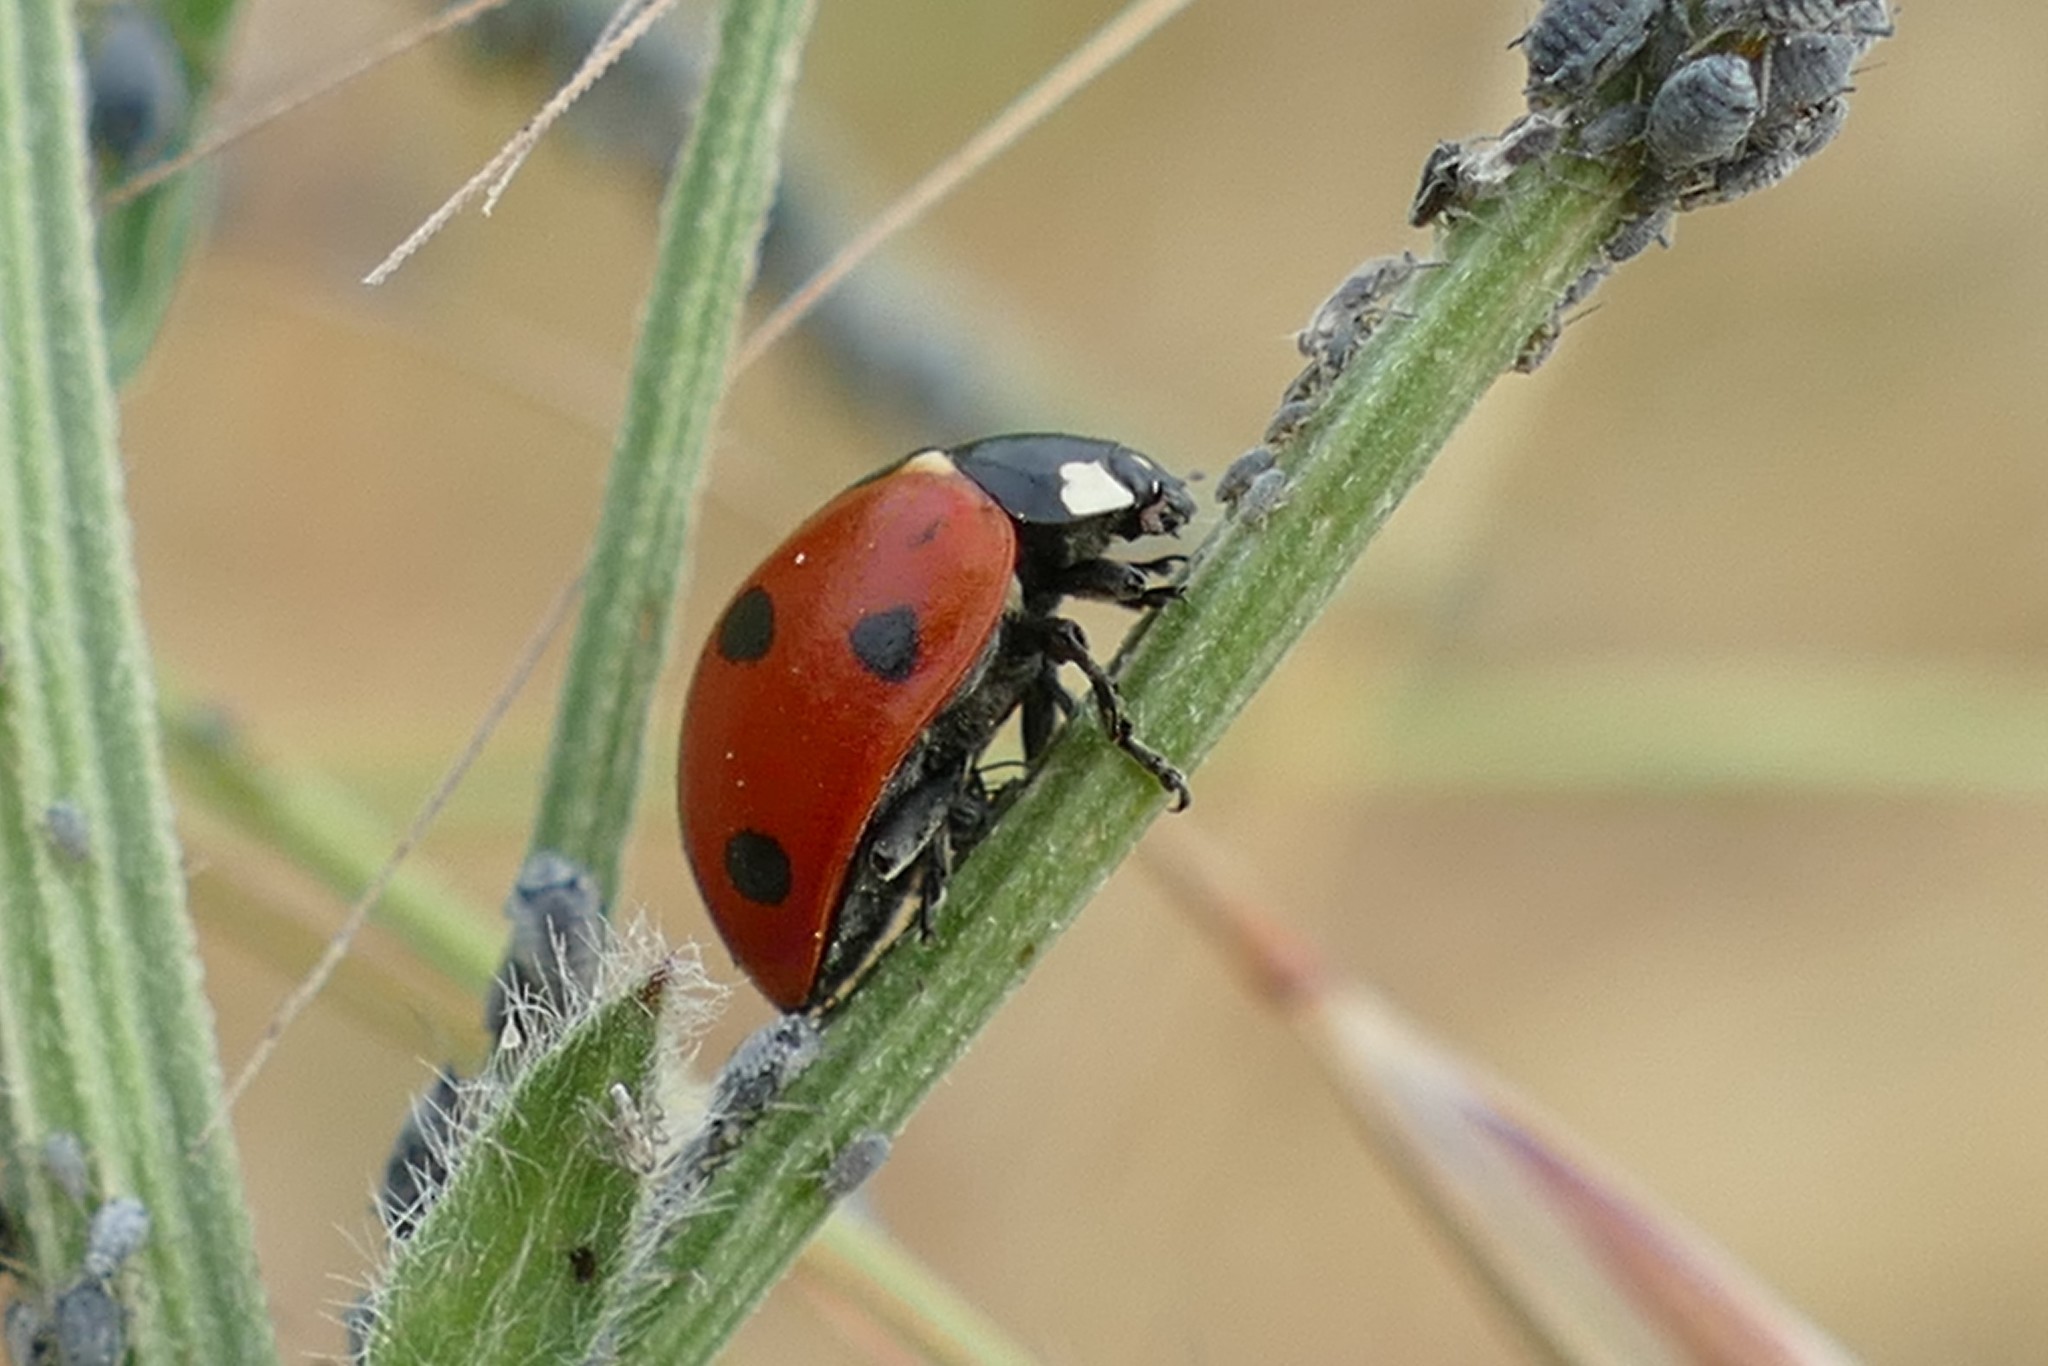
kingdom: Animalia
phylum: Arthropoda
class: Insecta
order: Coleoptera
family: Coccinellidae
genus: Coccinella
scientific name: Coccinella septempunctata
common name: Sevenspotted lady beetle
